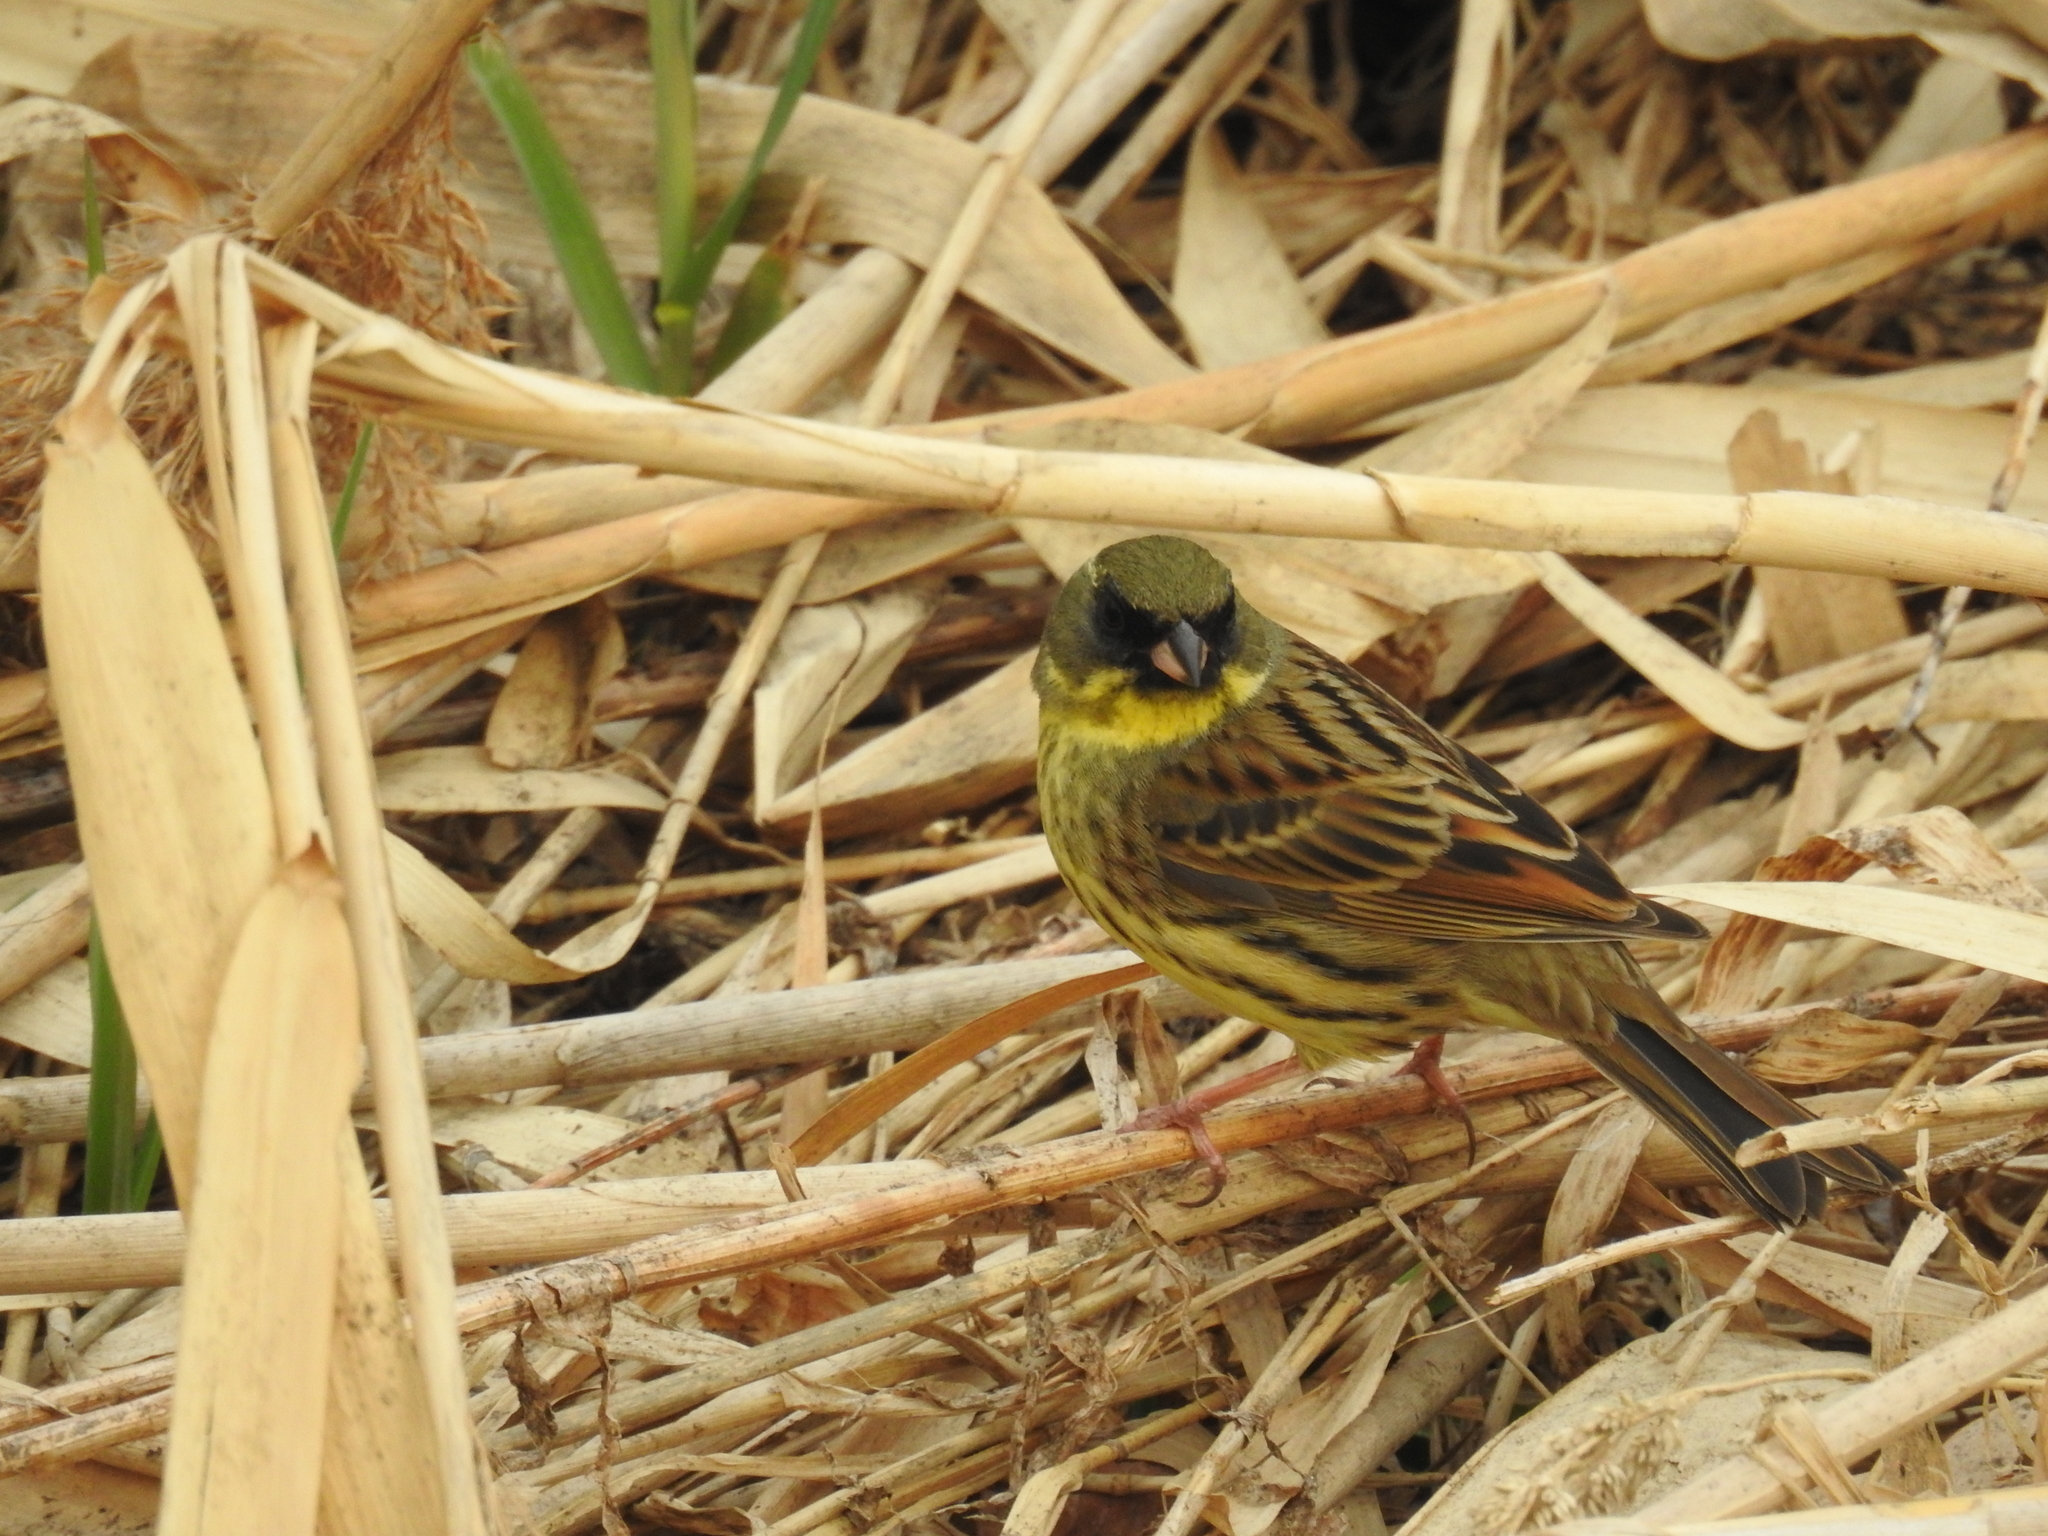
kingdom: Animalia
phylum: Chordata
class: Aves
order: Passeriformes
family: Emberizidae
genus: Emberiza
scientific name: Emberiza personata
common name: Masked bunting
